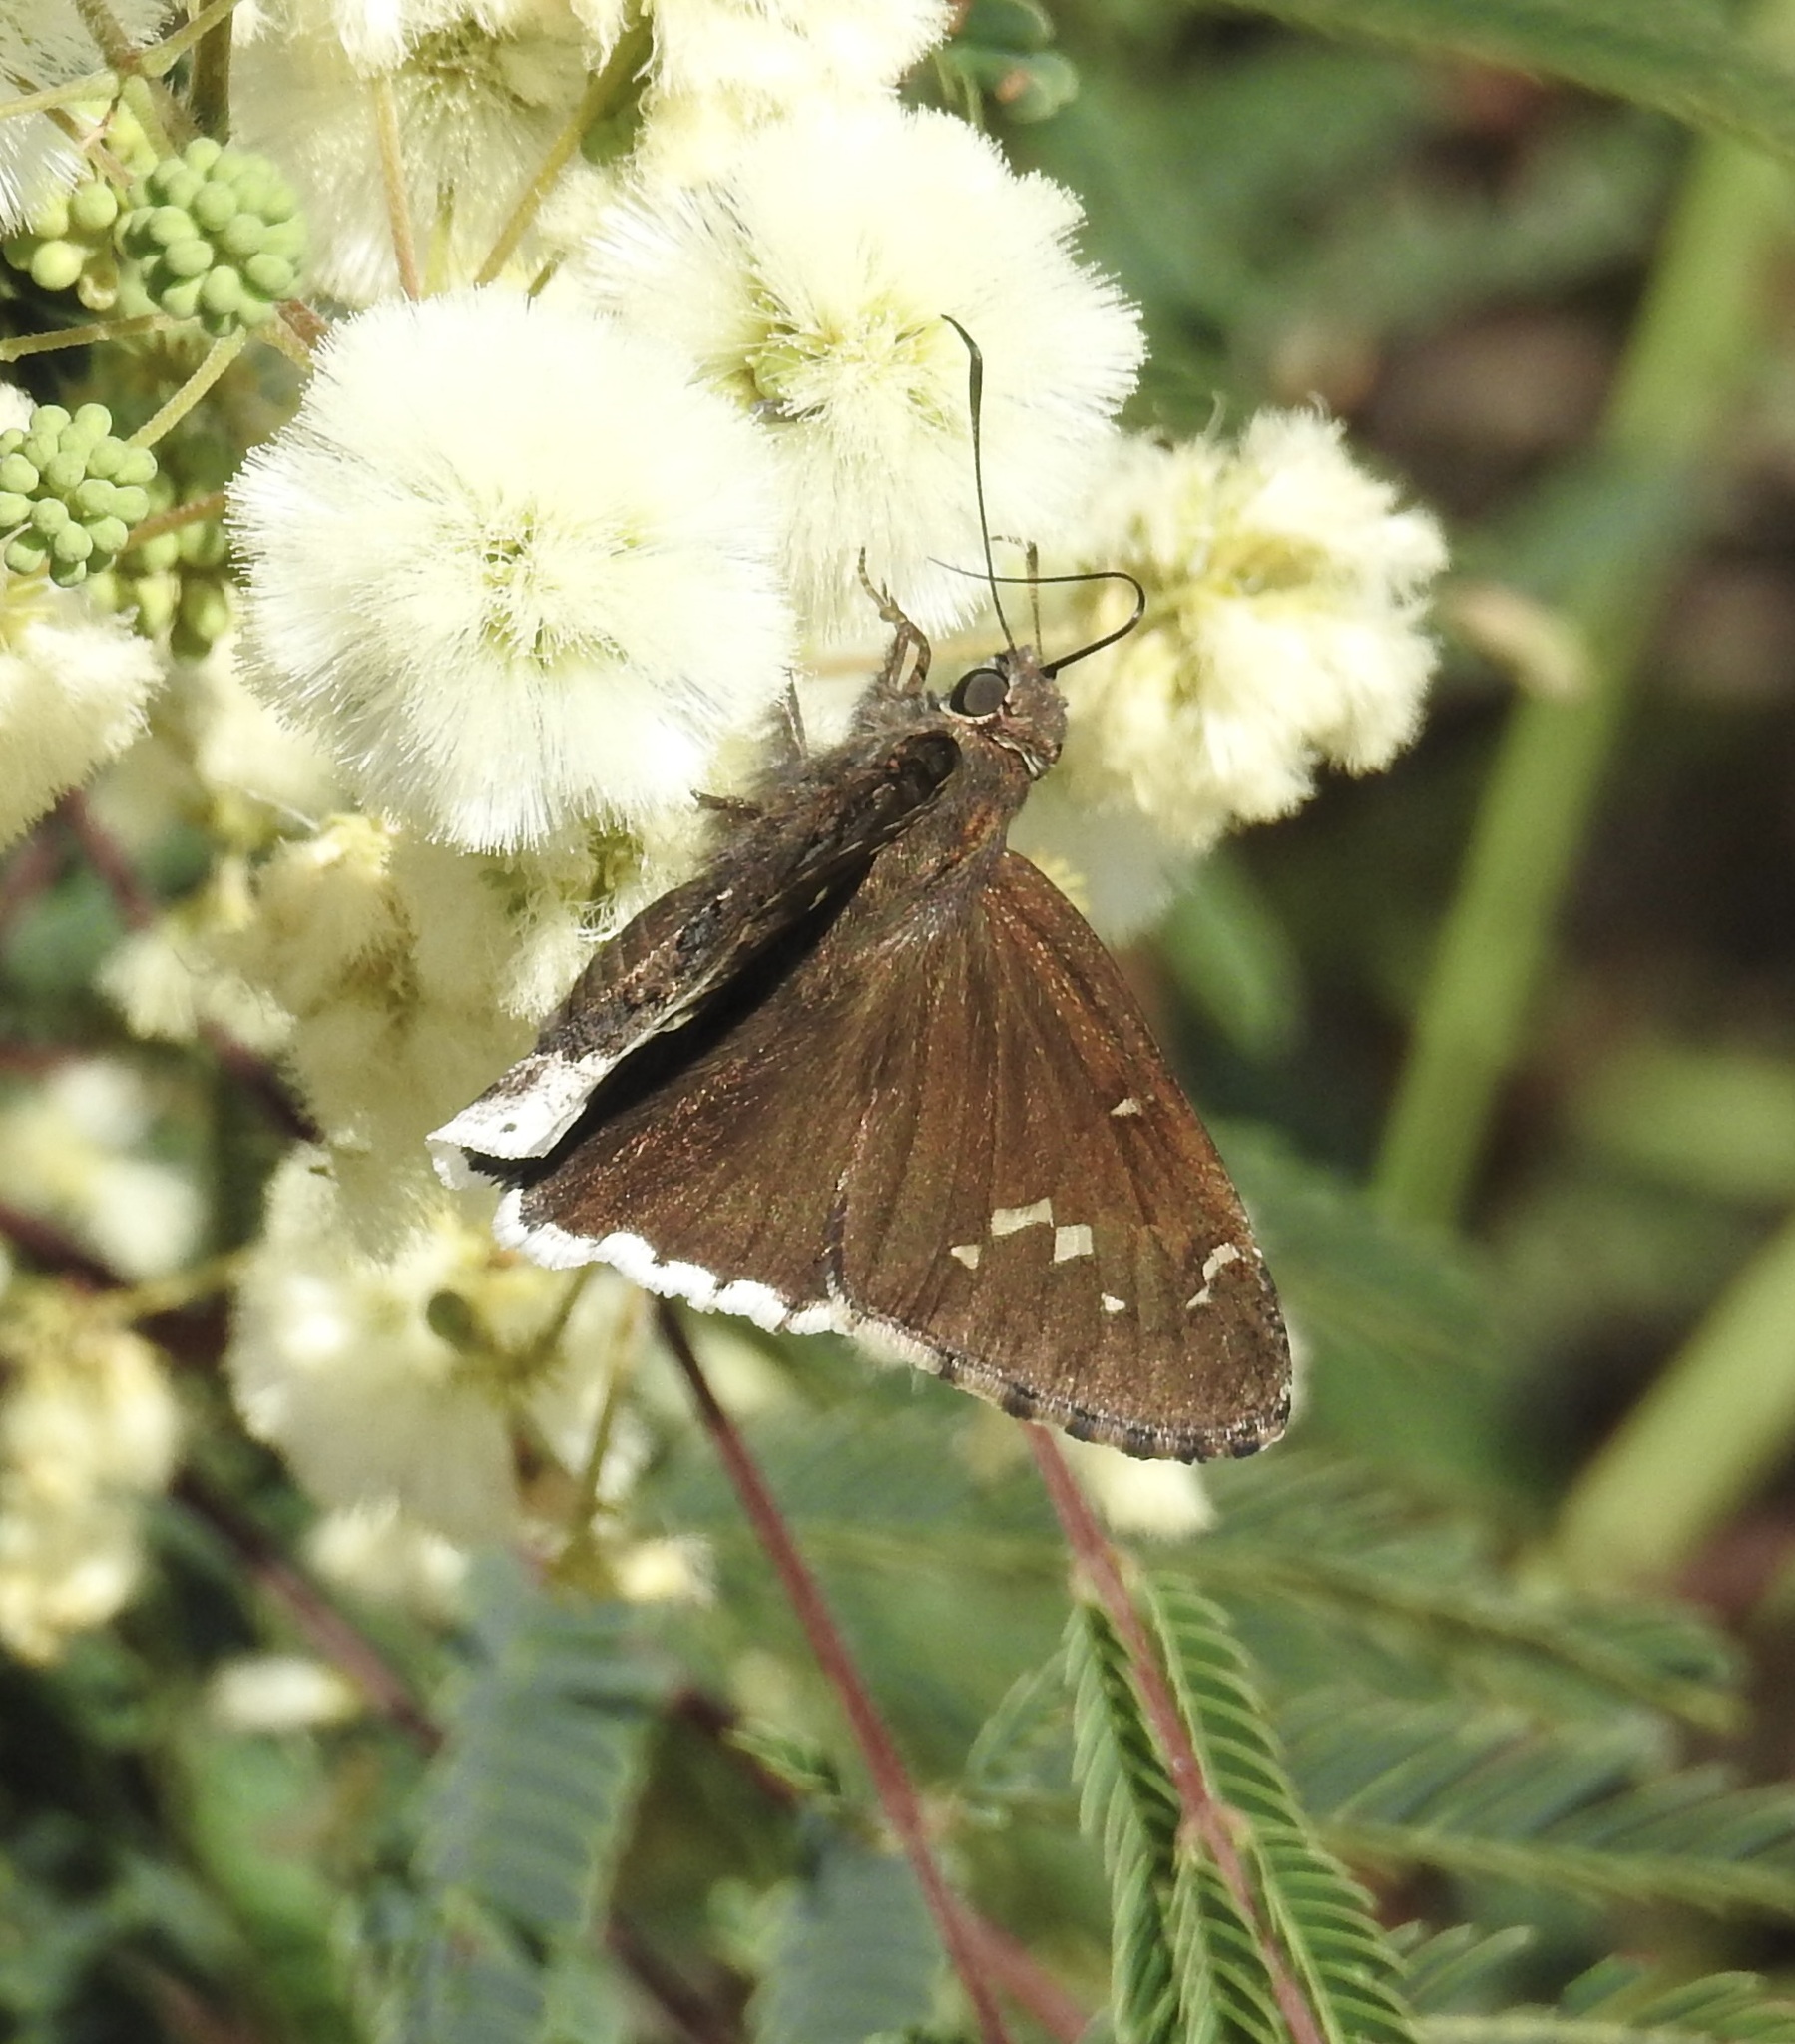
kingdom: Animalia
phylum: Arthropoda
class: Insecta
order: Lepidoptera
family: Hesperiidae
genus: Thorybes
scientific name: Thorybes casica
